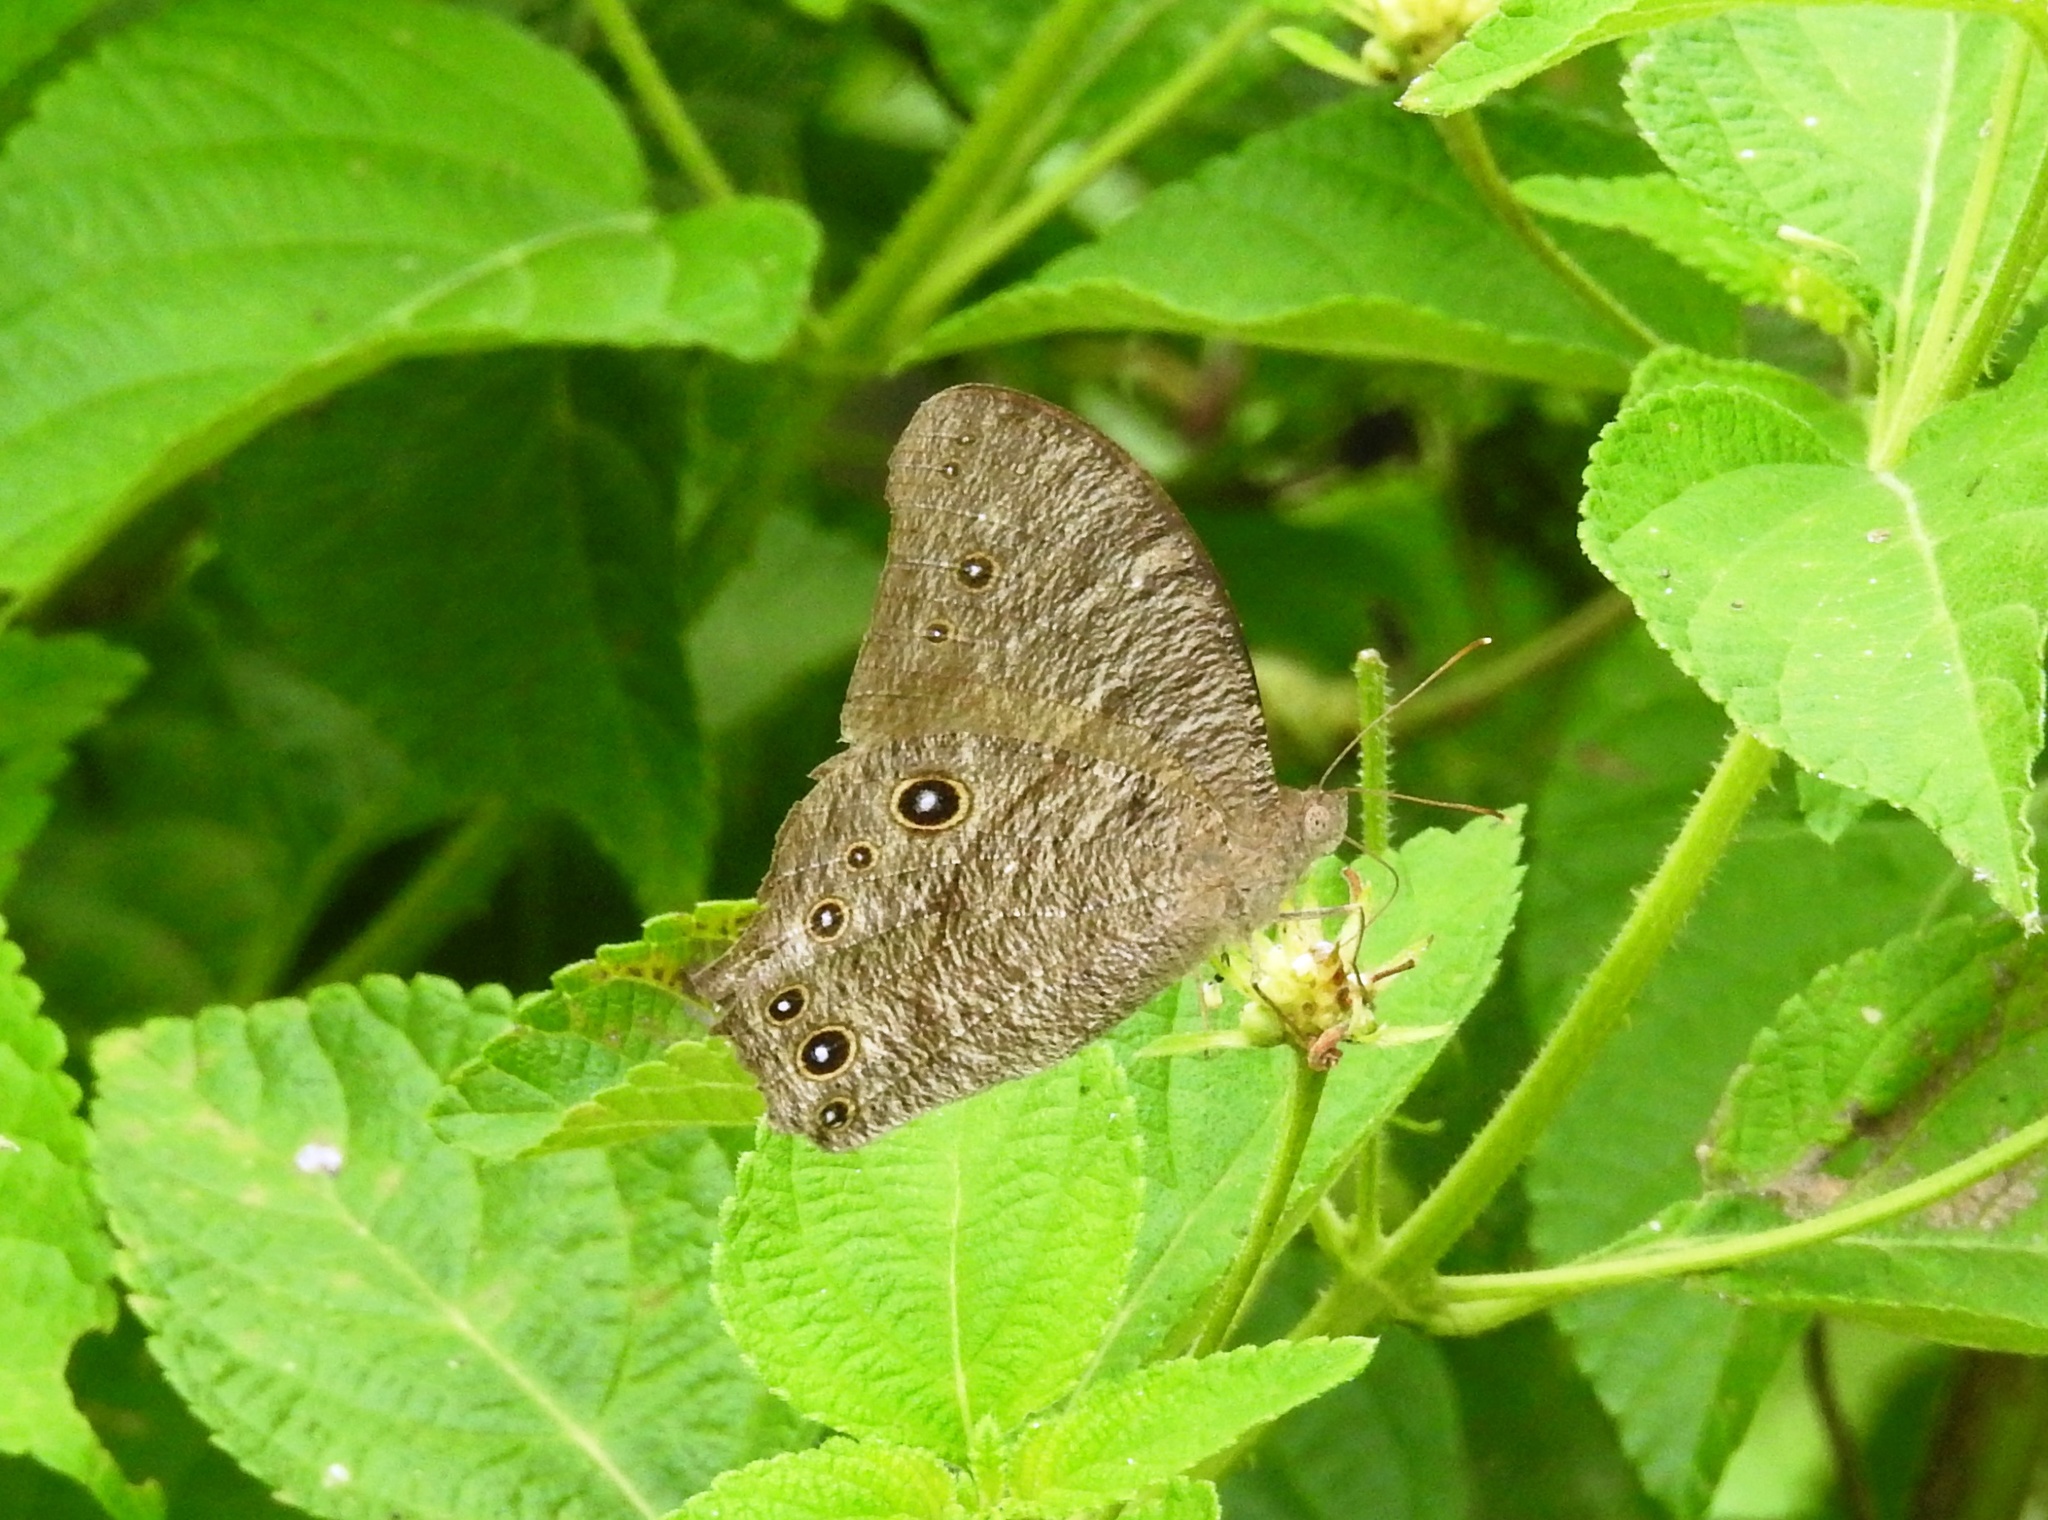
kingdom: Animalia
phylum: Arthropoda
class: Insecta
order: Lepidoptera
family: Nymphalidae
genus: Melanitis
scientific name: Melanitis leda
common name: Twilight brown
